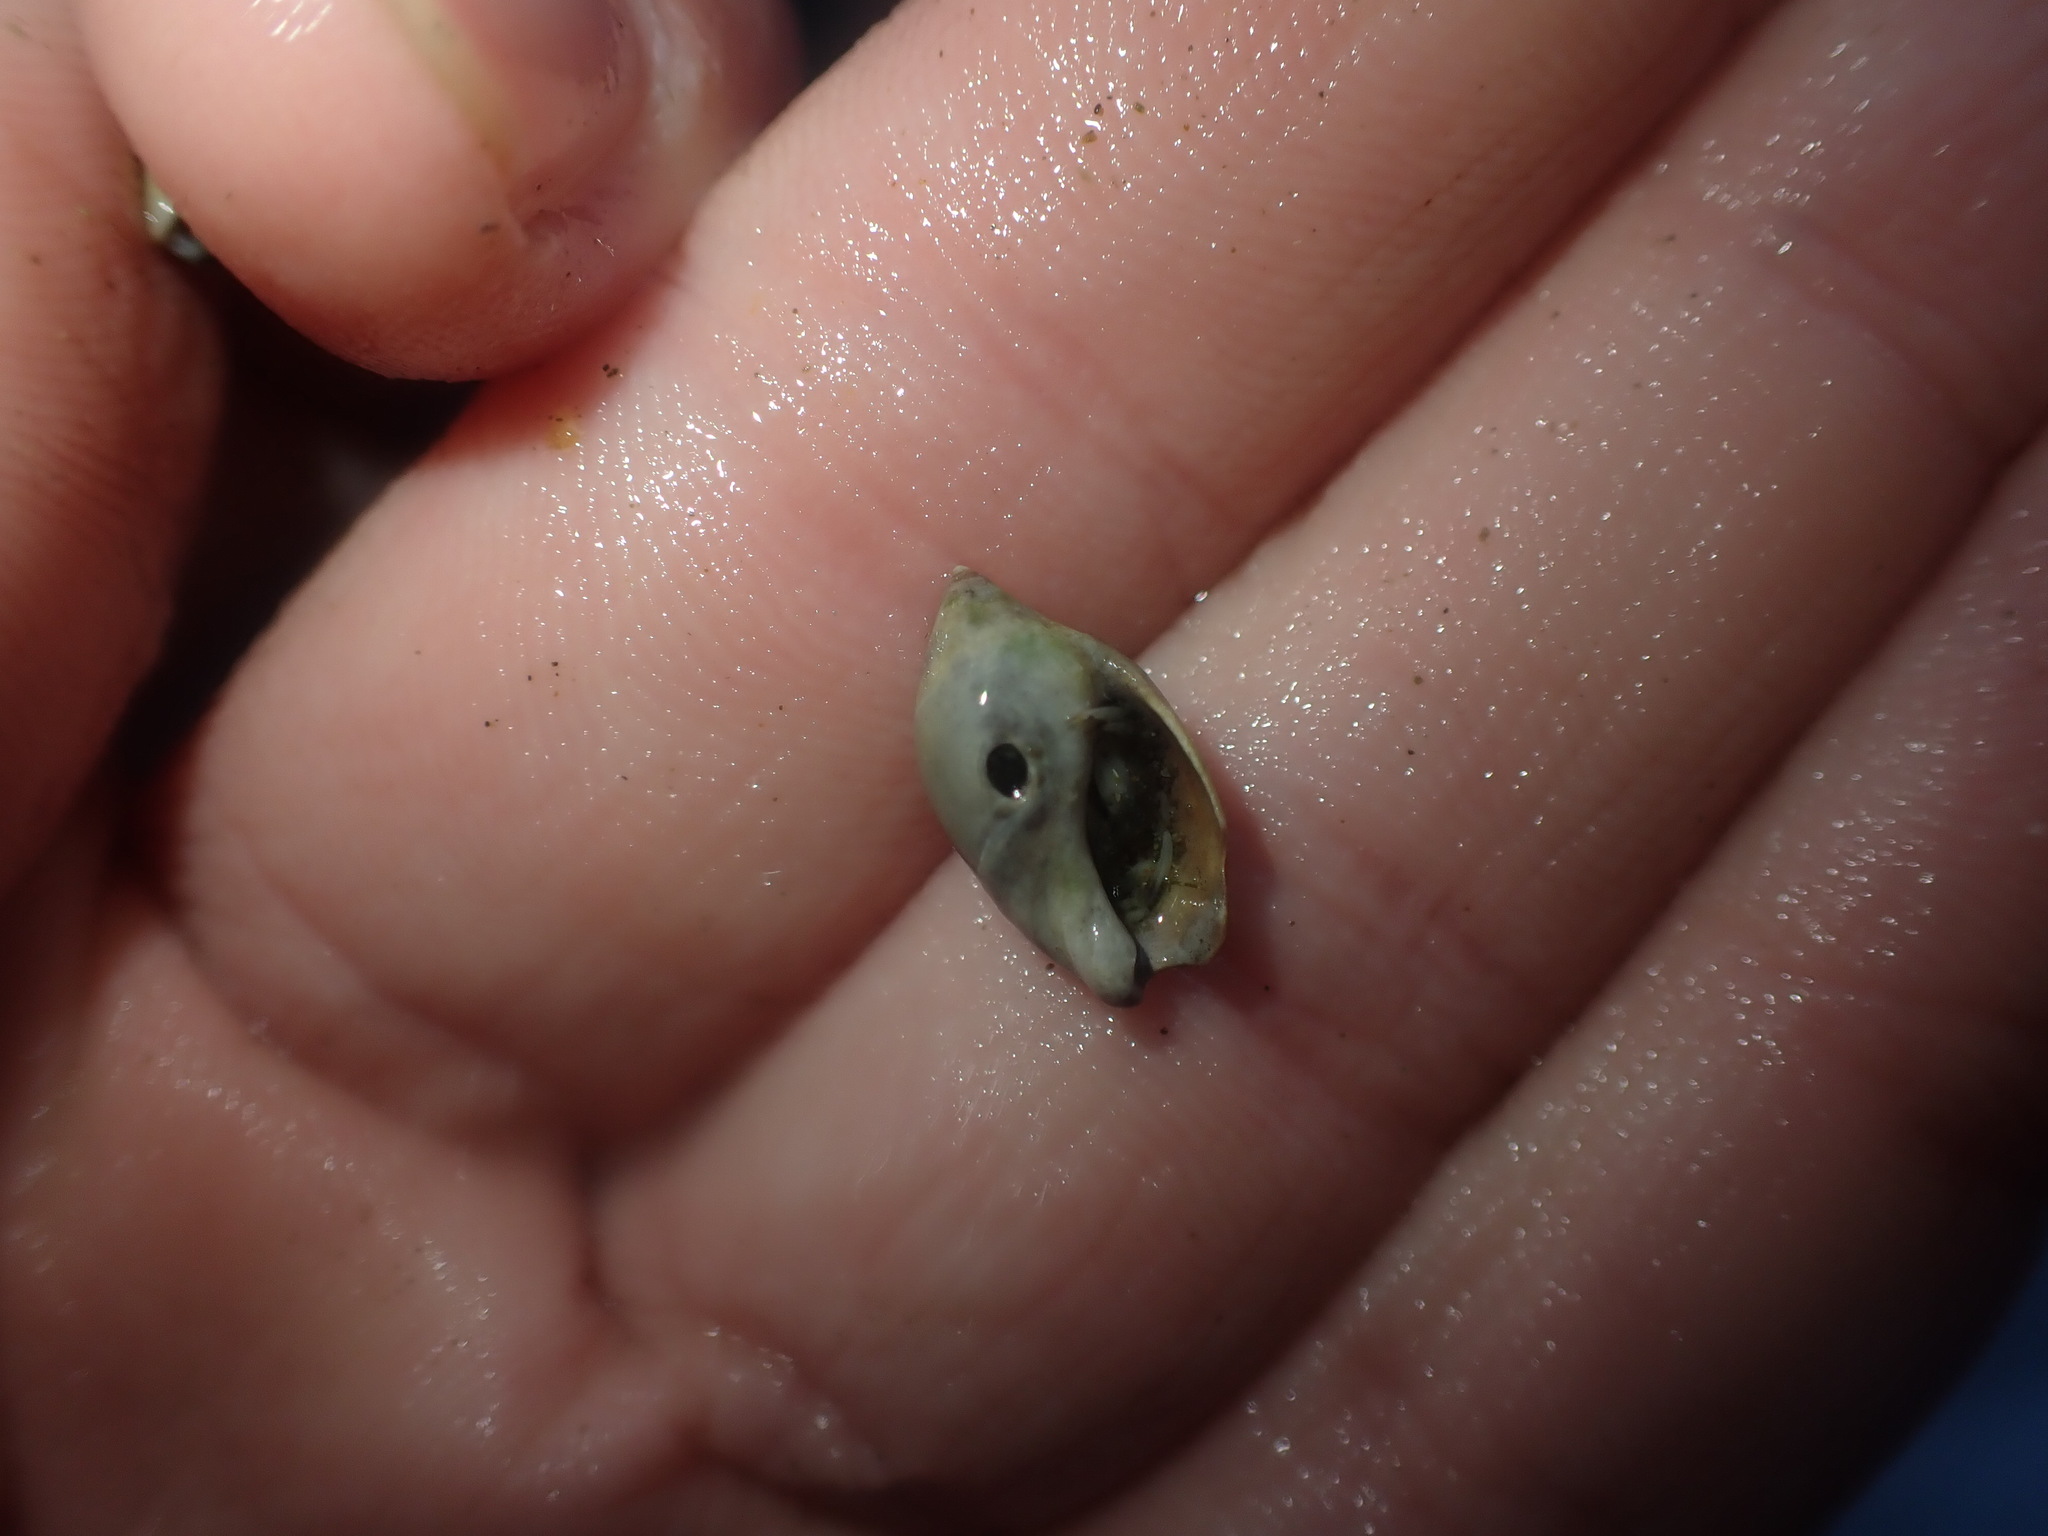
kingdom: Animalia
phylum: Mollusca
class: Gastropoda
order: Neogastropoda
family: Ancillariidae
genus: Amalda
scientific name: Amalda depressa
